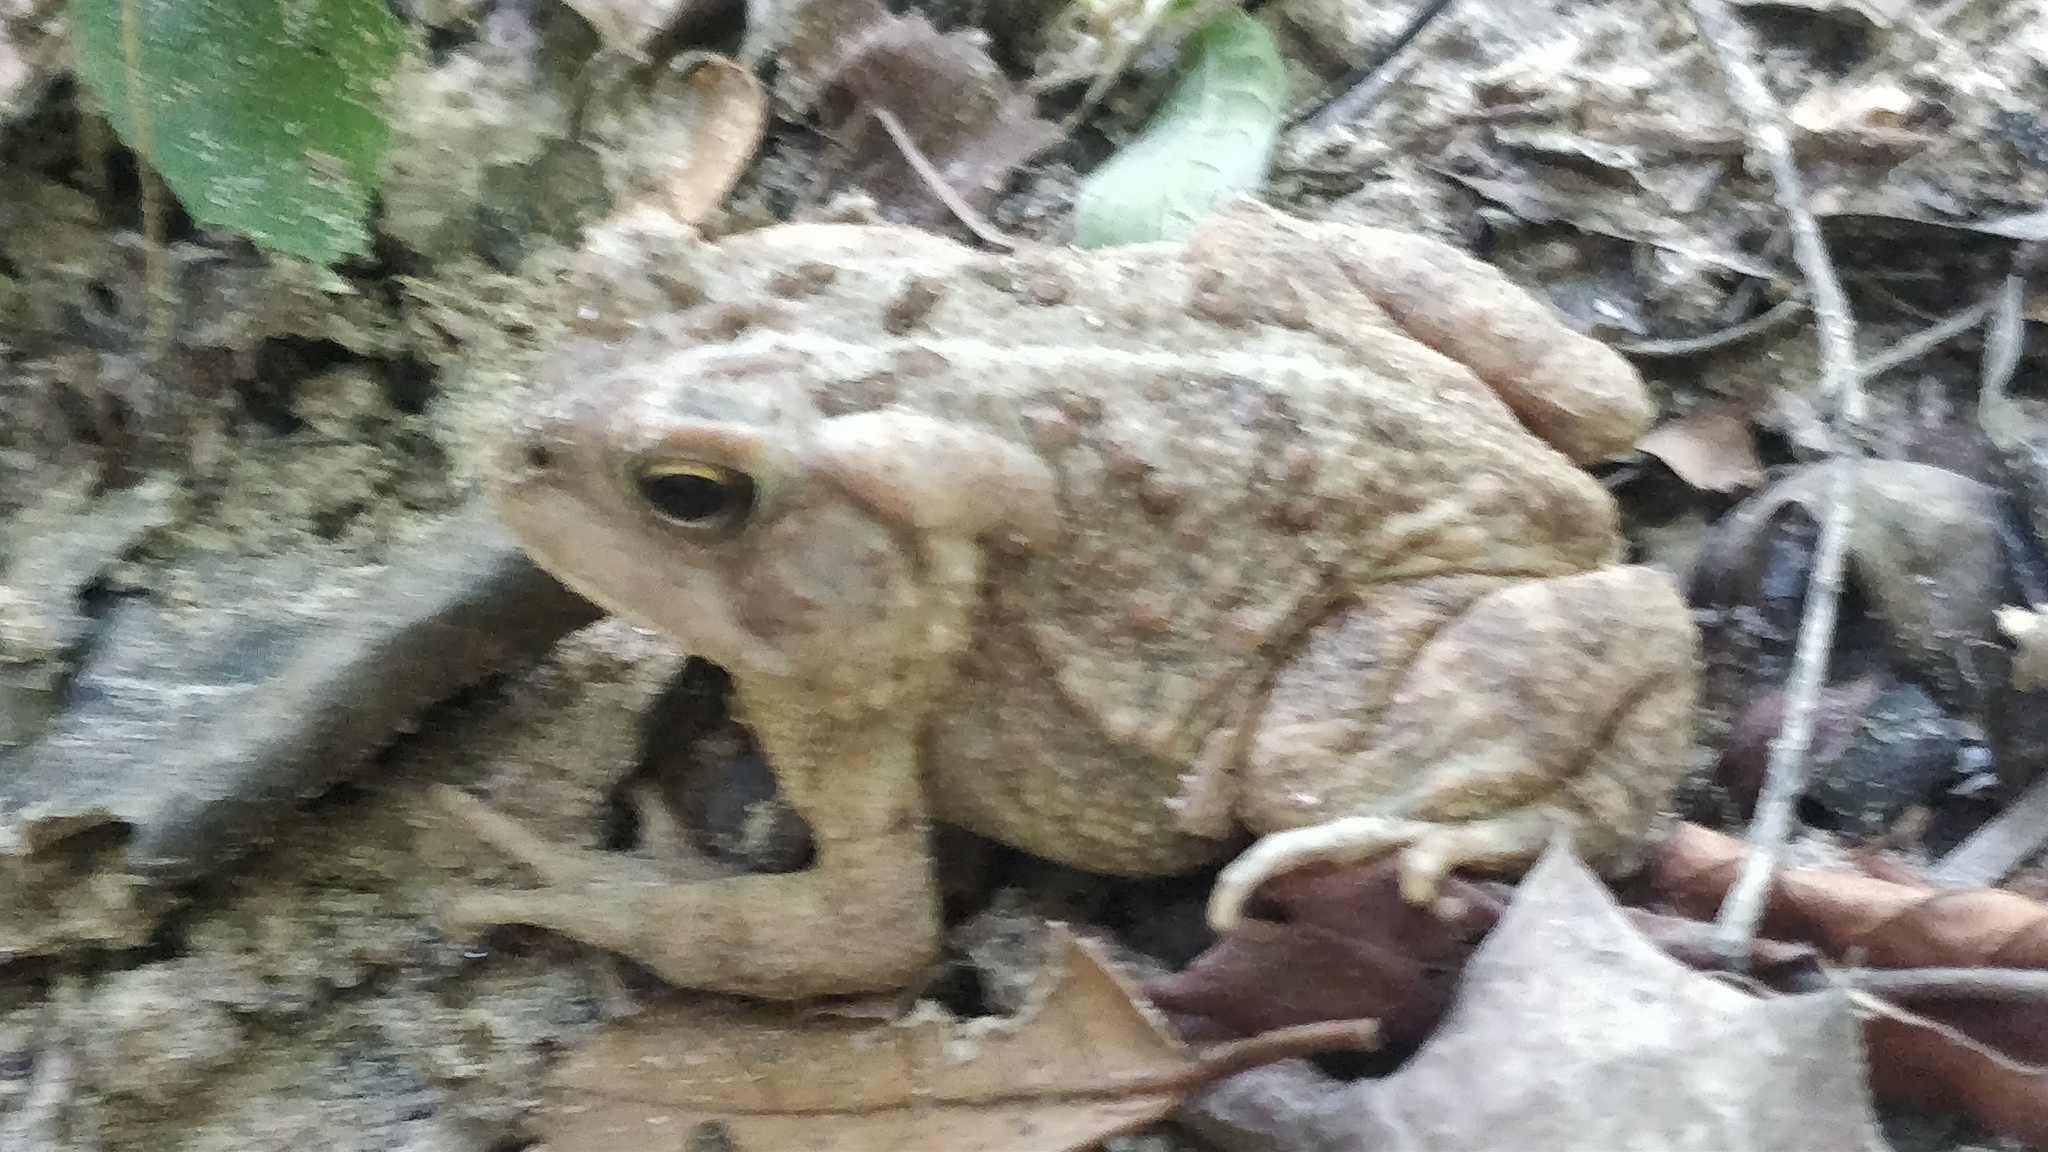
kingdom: Animalia
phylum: Chordata
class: Amphibia
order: Anura
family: Bufonidae
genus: Anaxyrus
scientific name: Anaxyrus fowleri
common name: Fowler's toad
